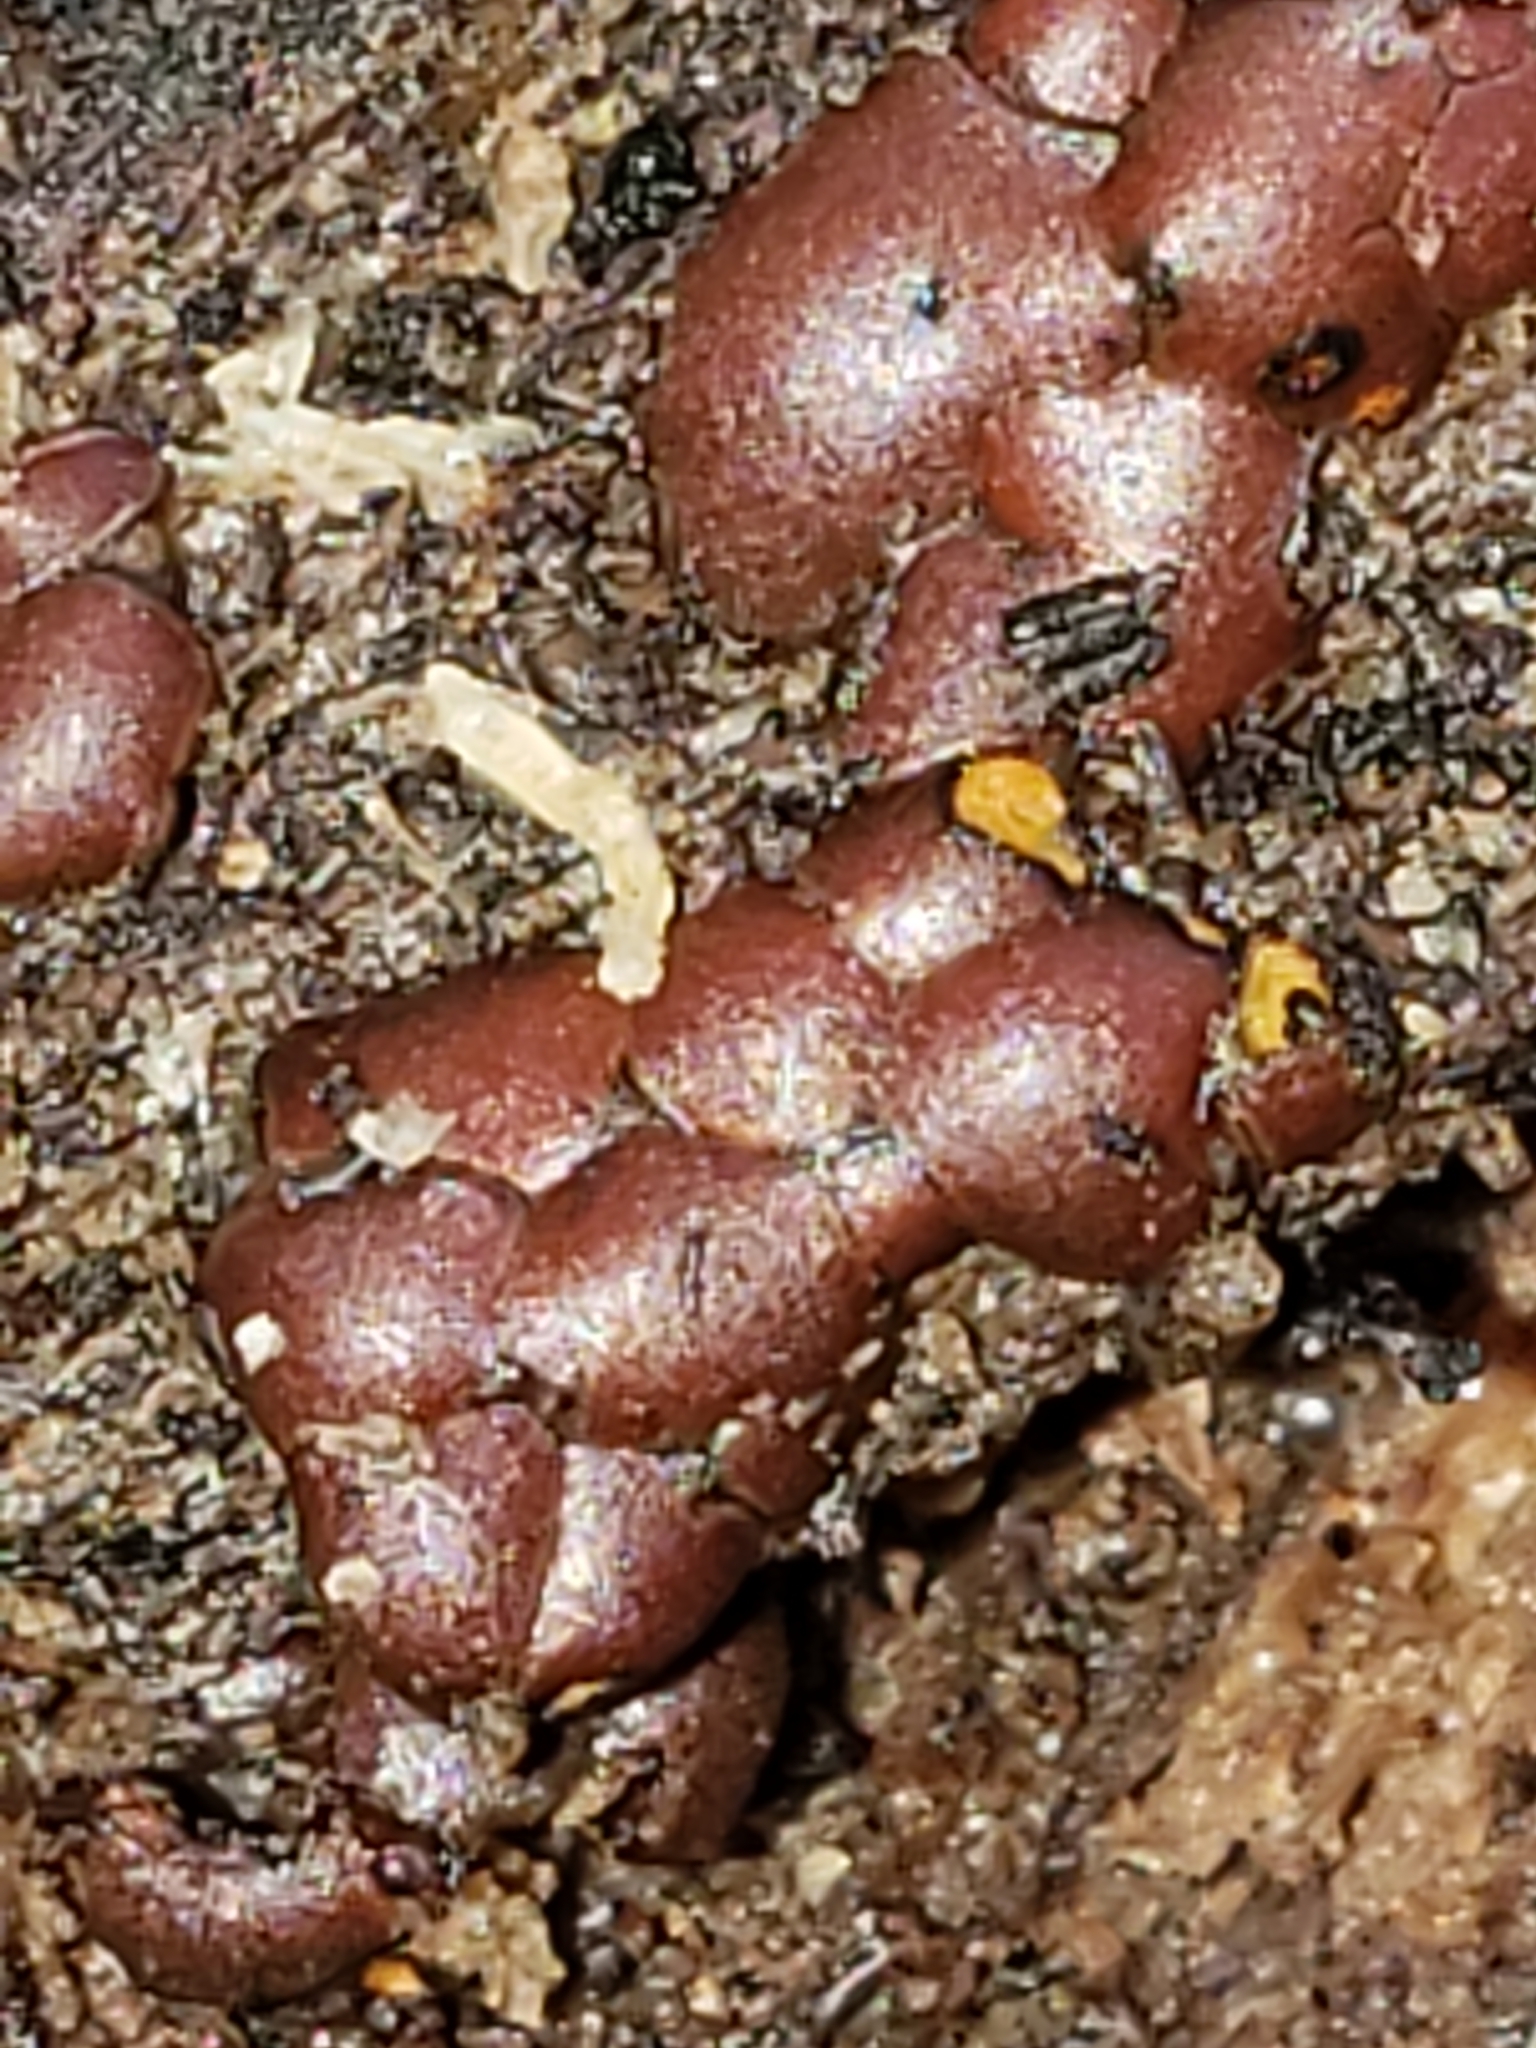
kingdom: Protozoa
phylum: Mycetozoa
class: Myxomycetes
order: Trichiales
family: Trichiaceae
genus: Perichaena
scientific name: Perichaena depressa
